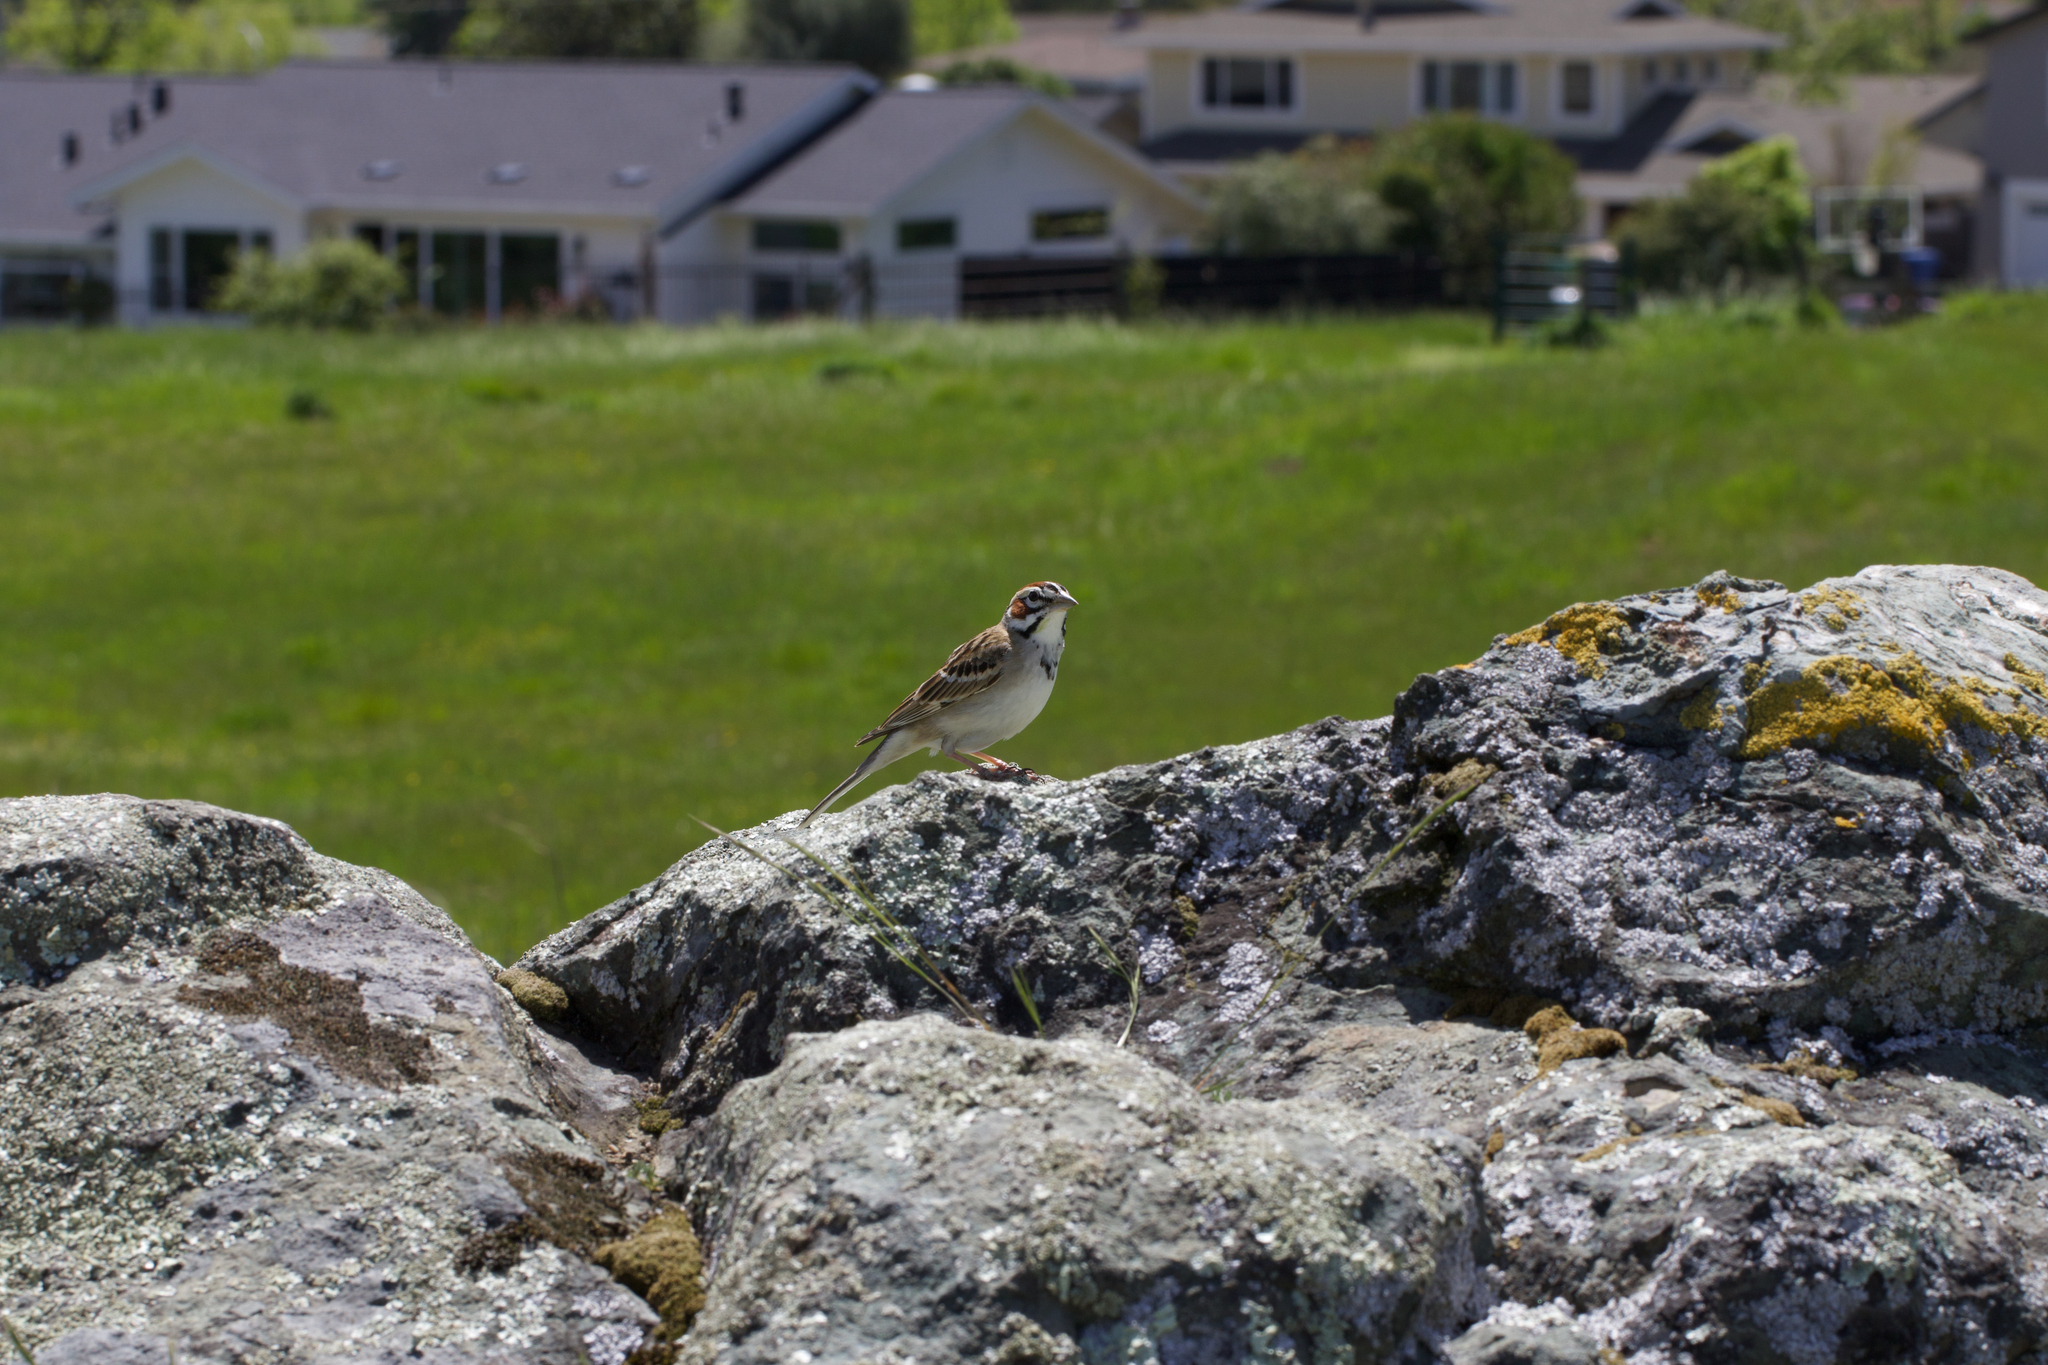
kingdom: Animalia
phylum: Chordata
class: Aves
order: Passeriformes
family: Passerellidae
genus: Chondestes
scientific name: Chondestes grammacus
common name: Lark sparrow
